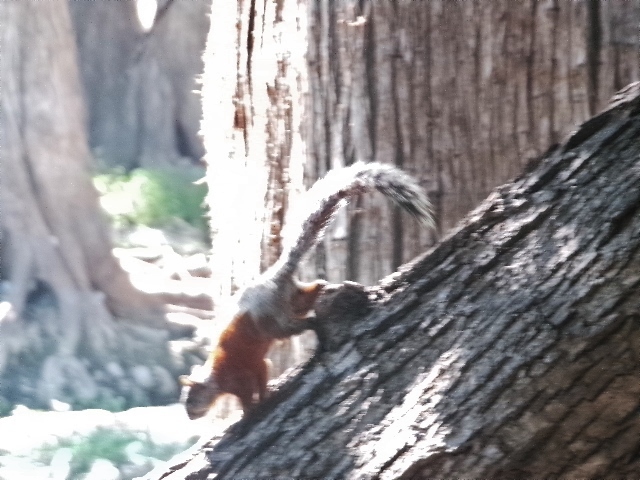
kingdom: Animalia
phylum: Chordata
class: Mammalia
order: Rodentia
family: Sciuridae
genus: Sciurus
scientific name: Sciurus aureogaster
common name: Red-bellied squirrel
